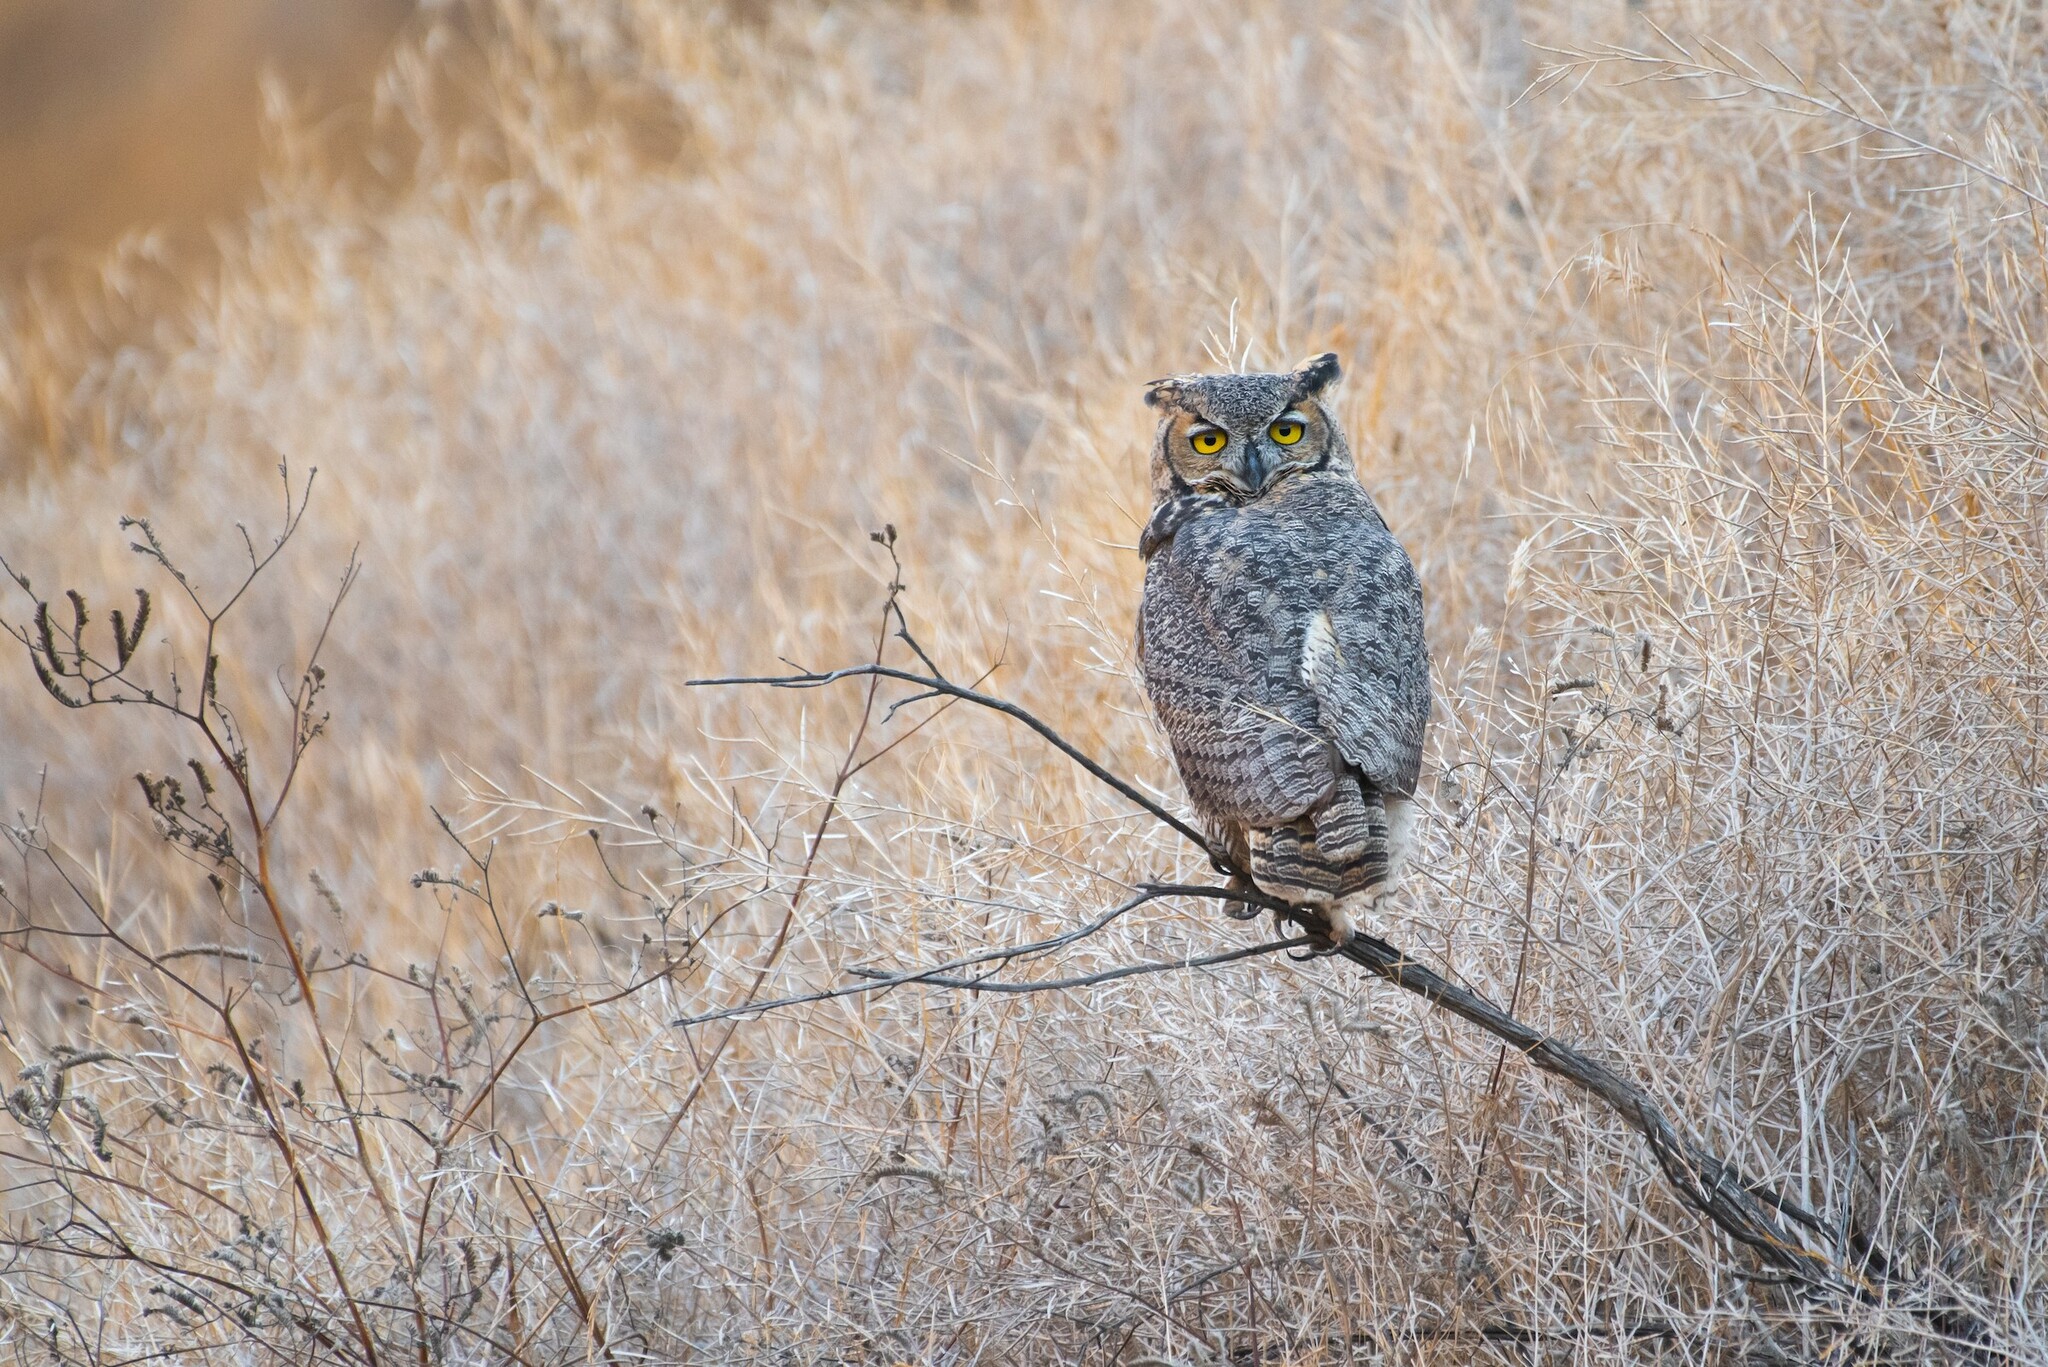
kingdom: Animalia
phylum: Chordata
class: Aves
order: Strigiformes
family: Strigidae
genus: Bubo
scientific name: Bubo virginianus
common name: Great horned owl
